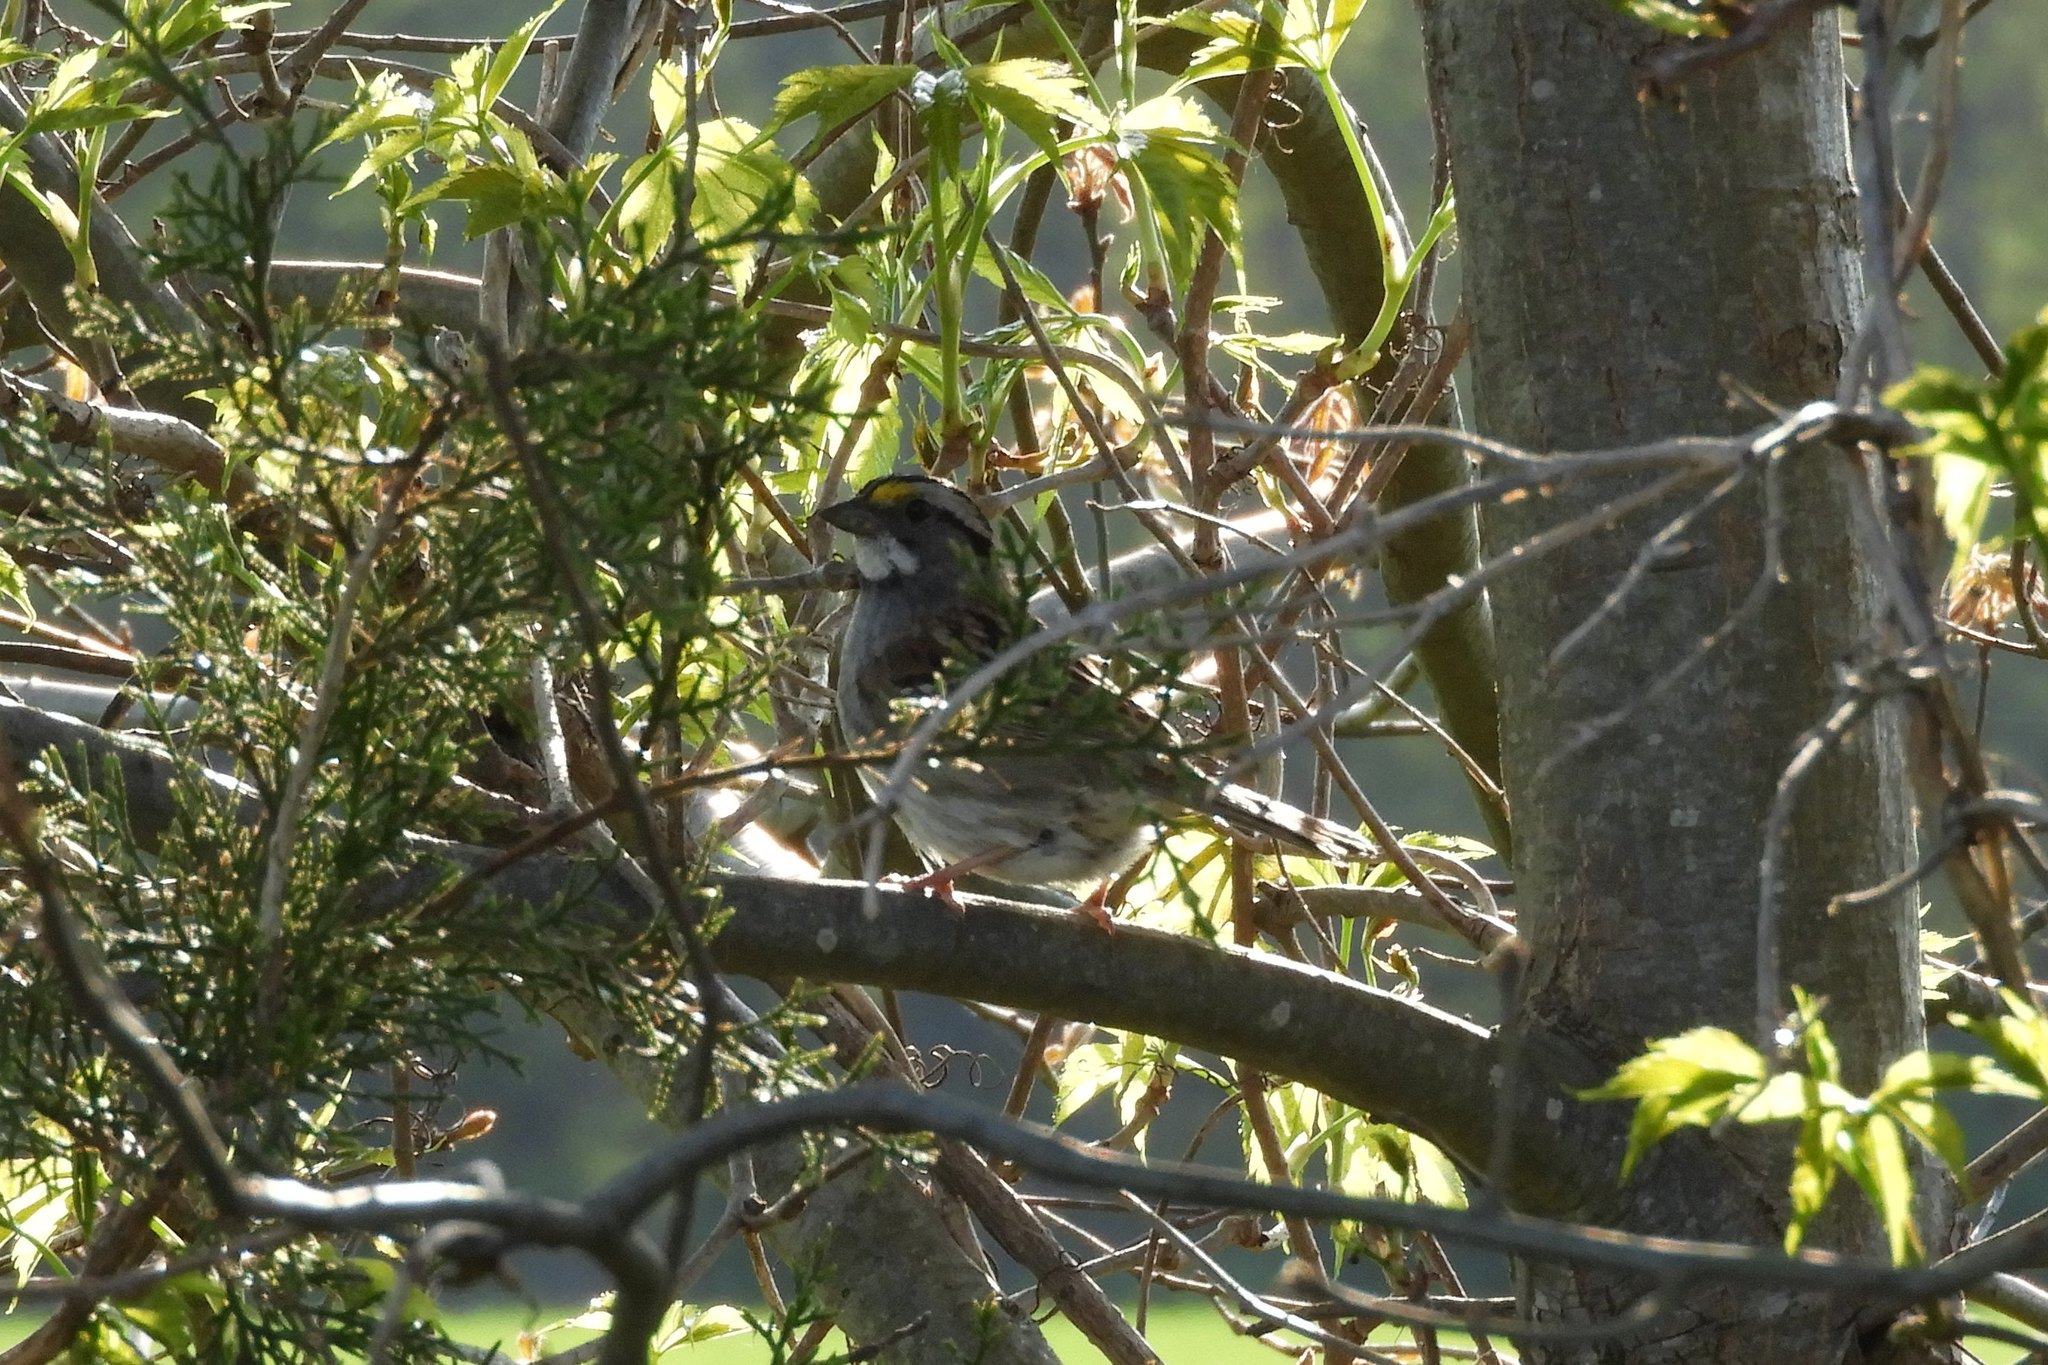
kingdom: Animalia
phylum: Chordata
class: Aves
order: Passeriformes
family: Passerellidae
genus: Zonotrichia
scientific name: Zonotrichia albicollis
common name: White-throated sparrow
